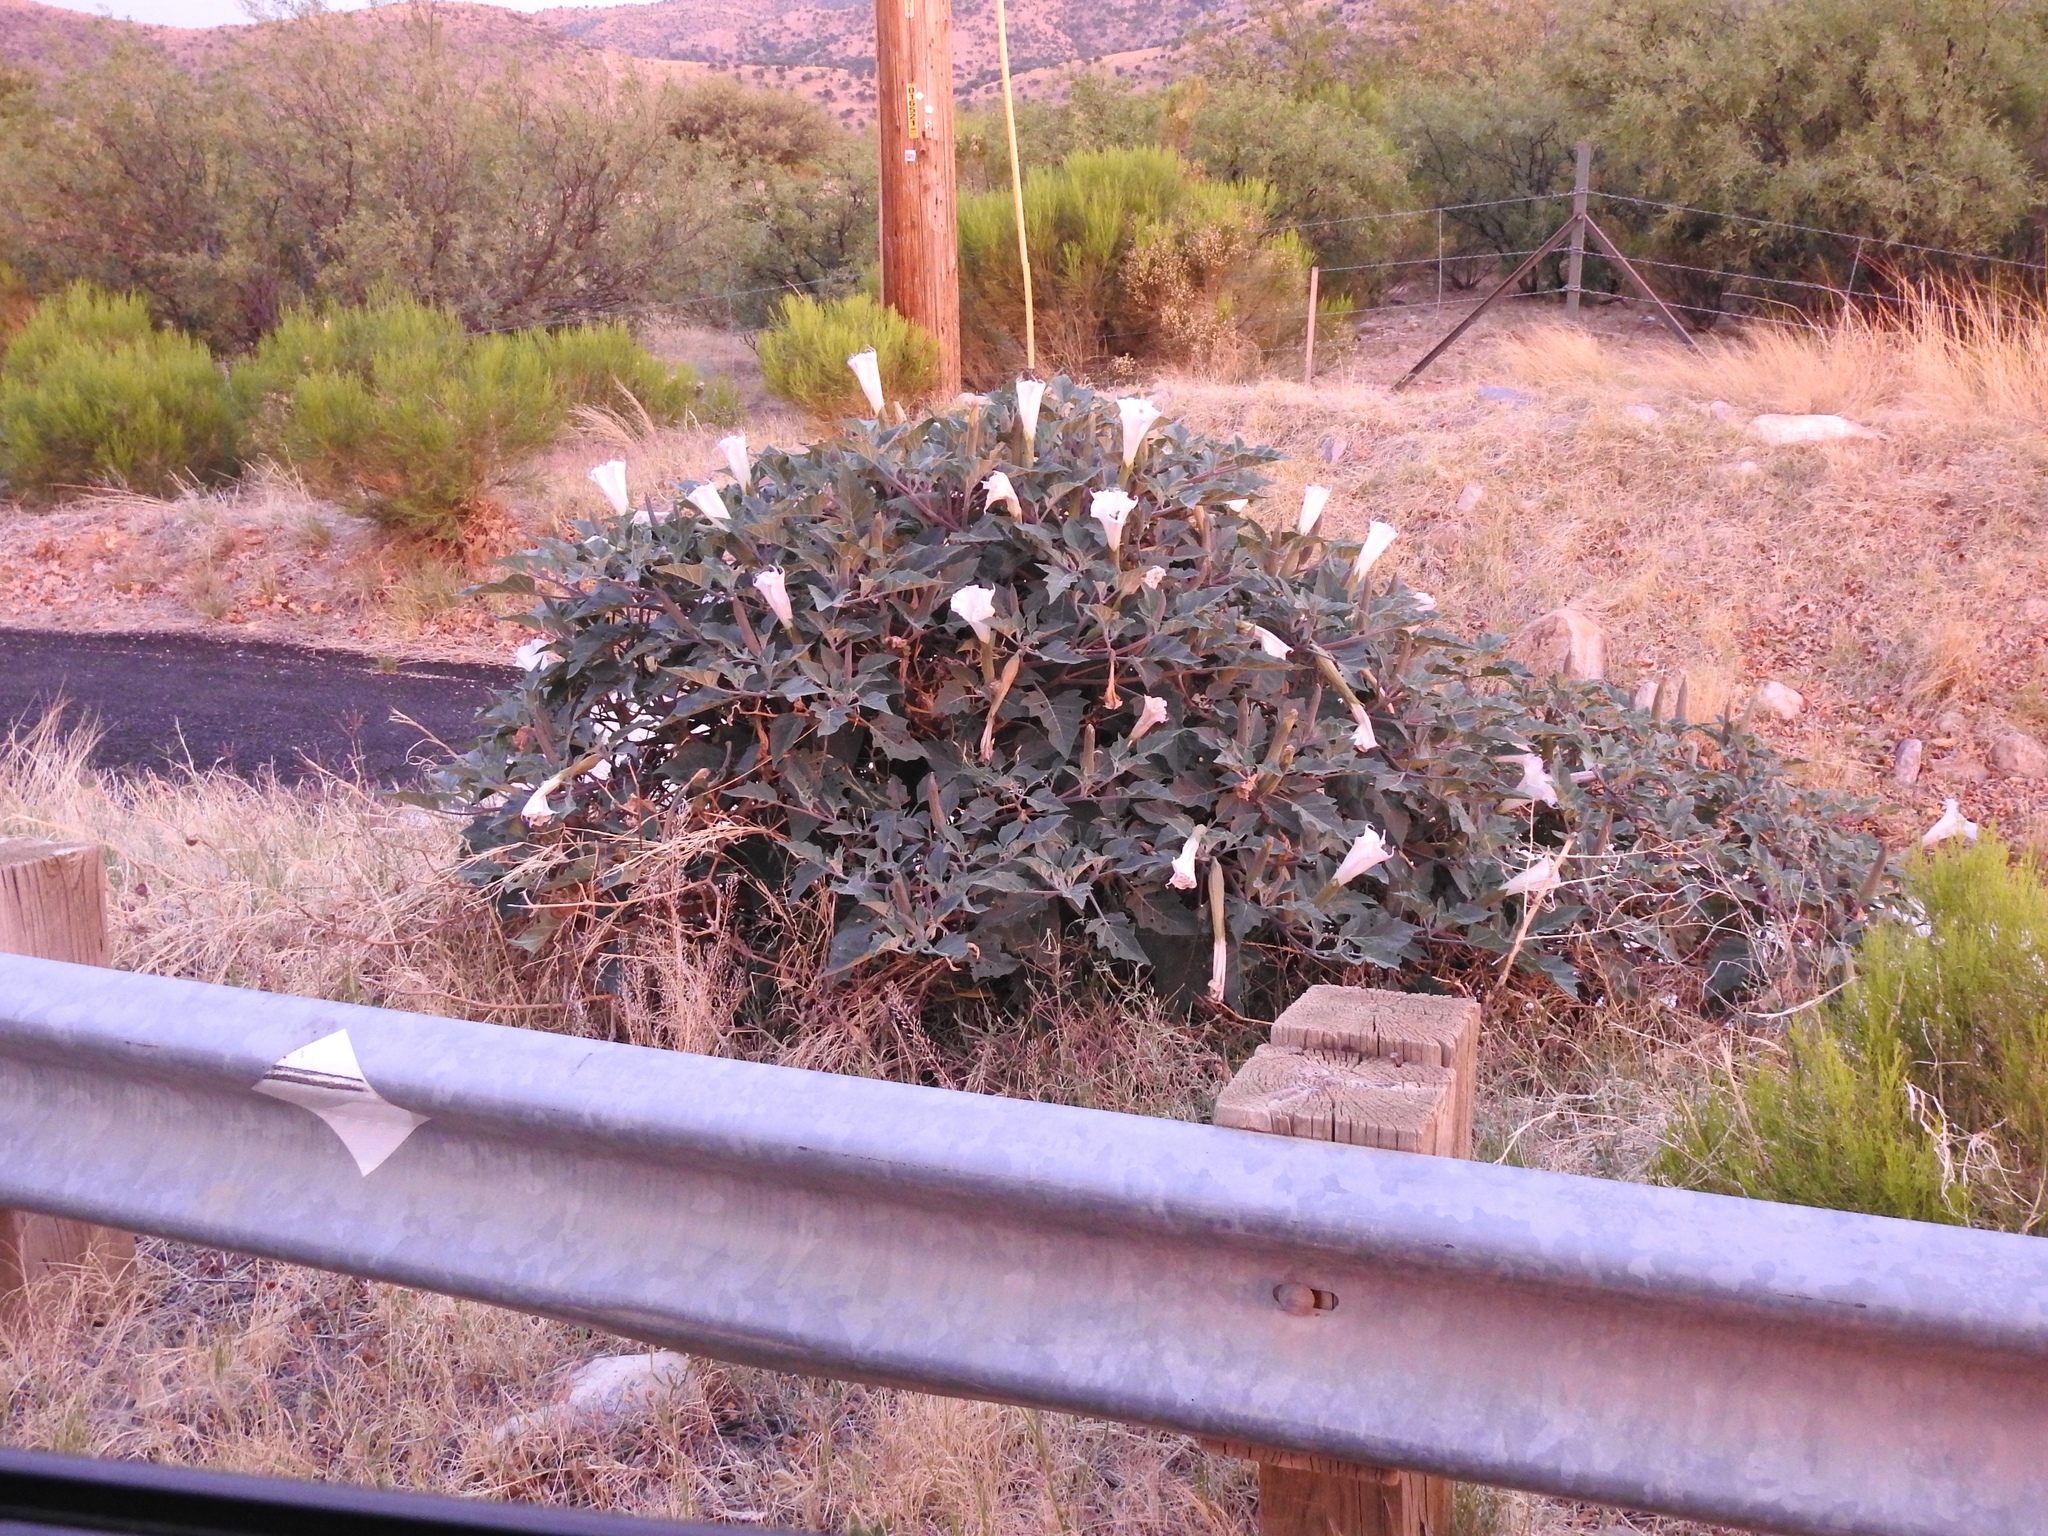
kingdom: Plantae
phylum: Tracheophyta
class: Magnoliopsida
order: Solanales
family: Solanaceae
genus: Datura
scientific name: Datura wrightii
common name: Sacred thorn-apple
